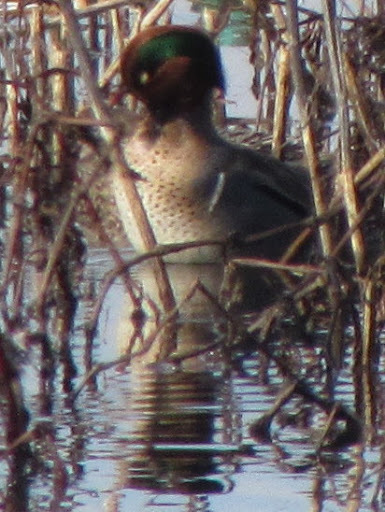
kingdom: Animalia
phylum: Chordata
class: Aves
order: Anseriformes
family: Anatidae
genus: Anas
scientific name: Anas crecca
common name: Eurasian teal
